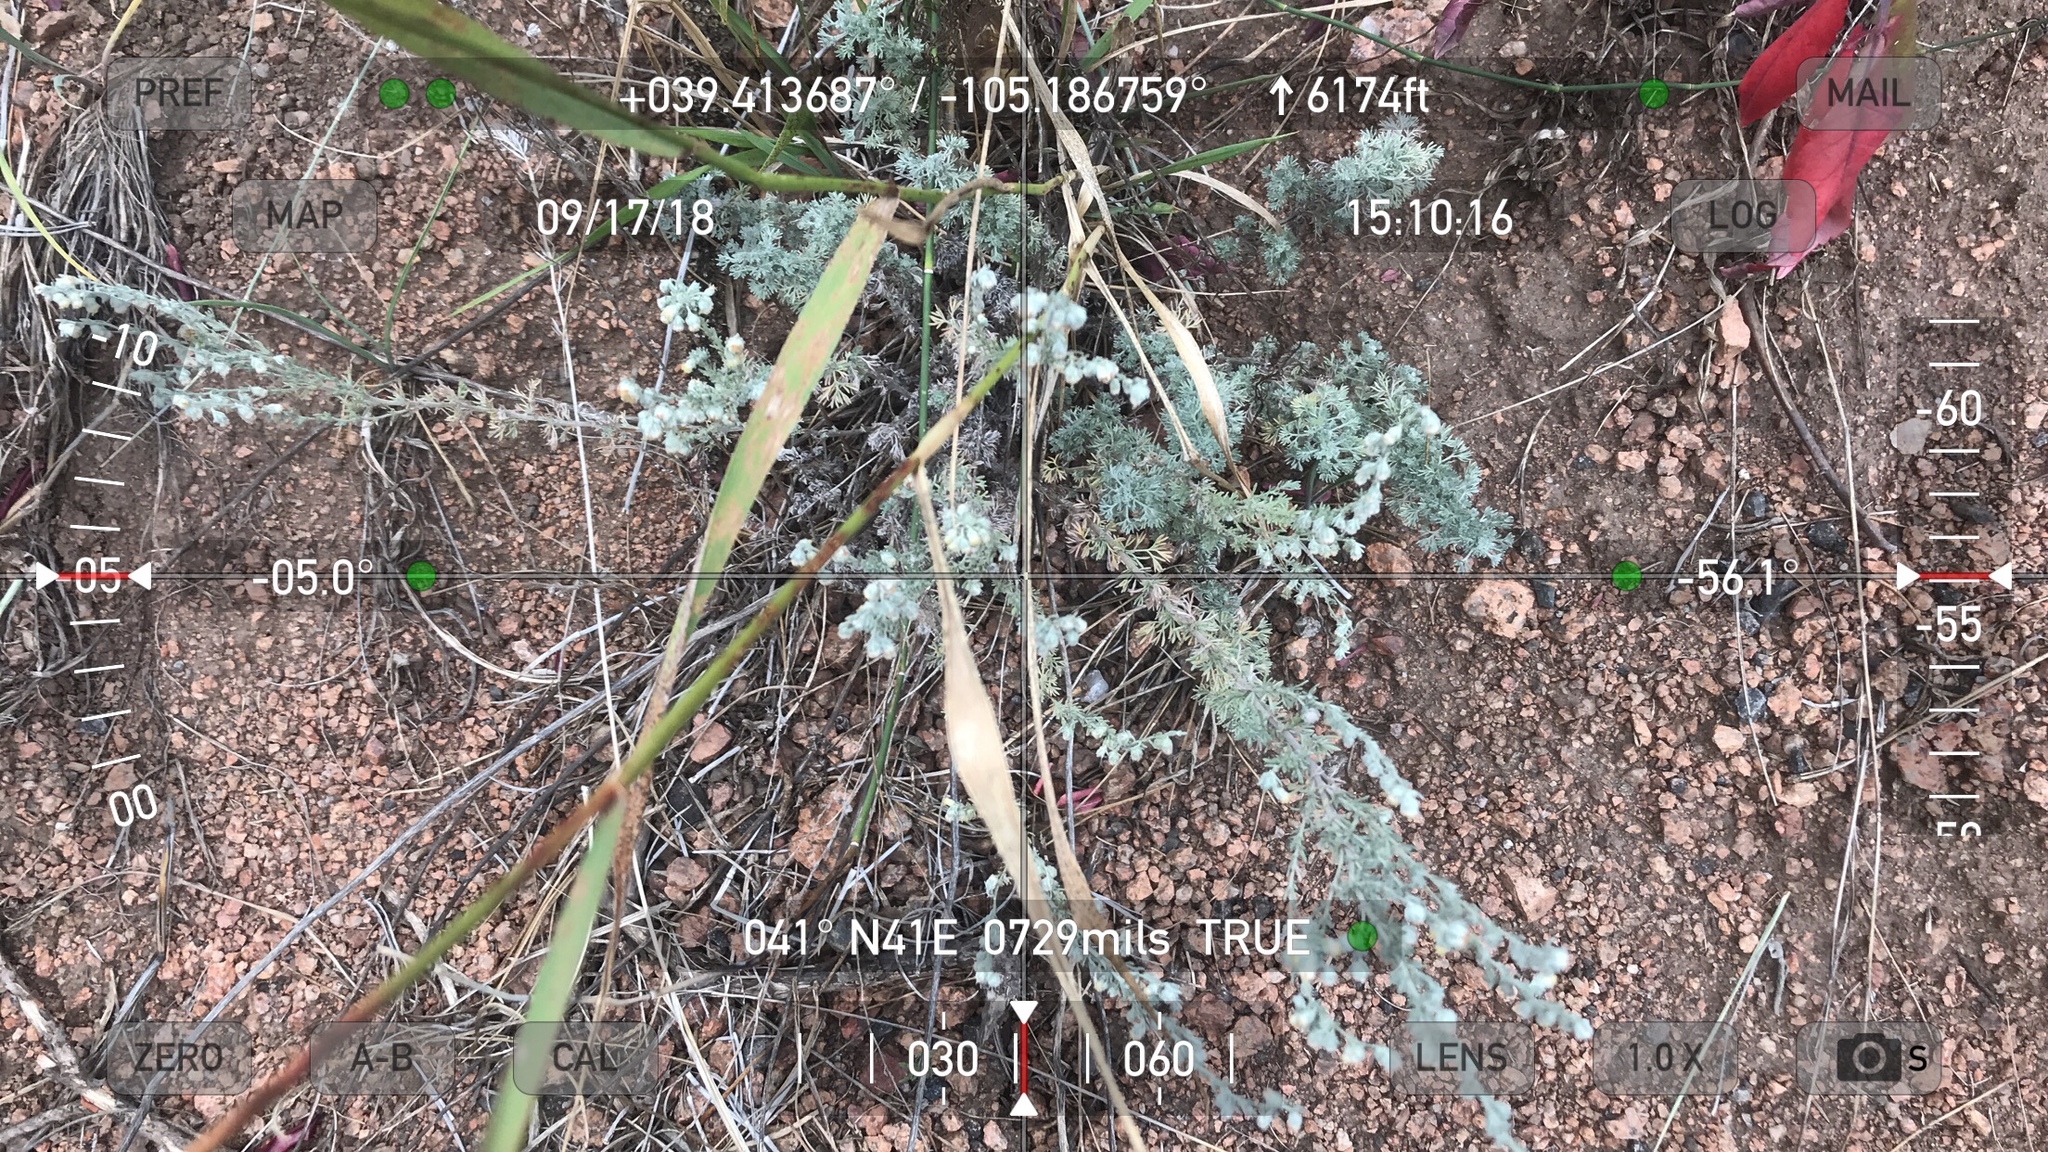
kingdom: Plantae
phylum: Tracheophyta
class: Magnoliopsida
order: Asterales
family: Asteraceae
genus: Artemisia
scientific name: Artemisia frigida
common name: Prairie sagewort
